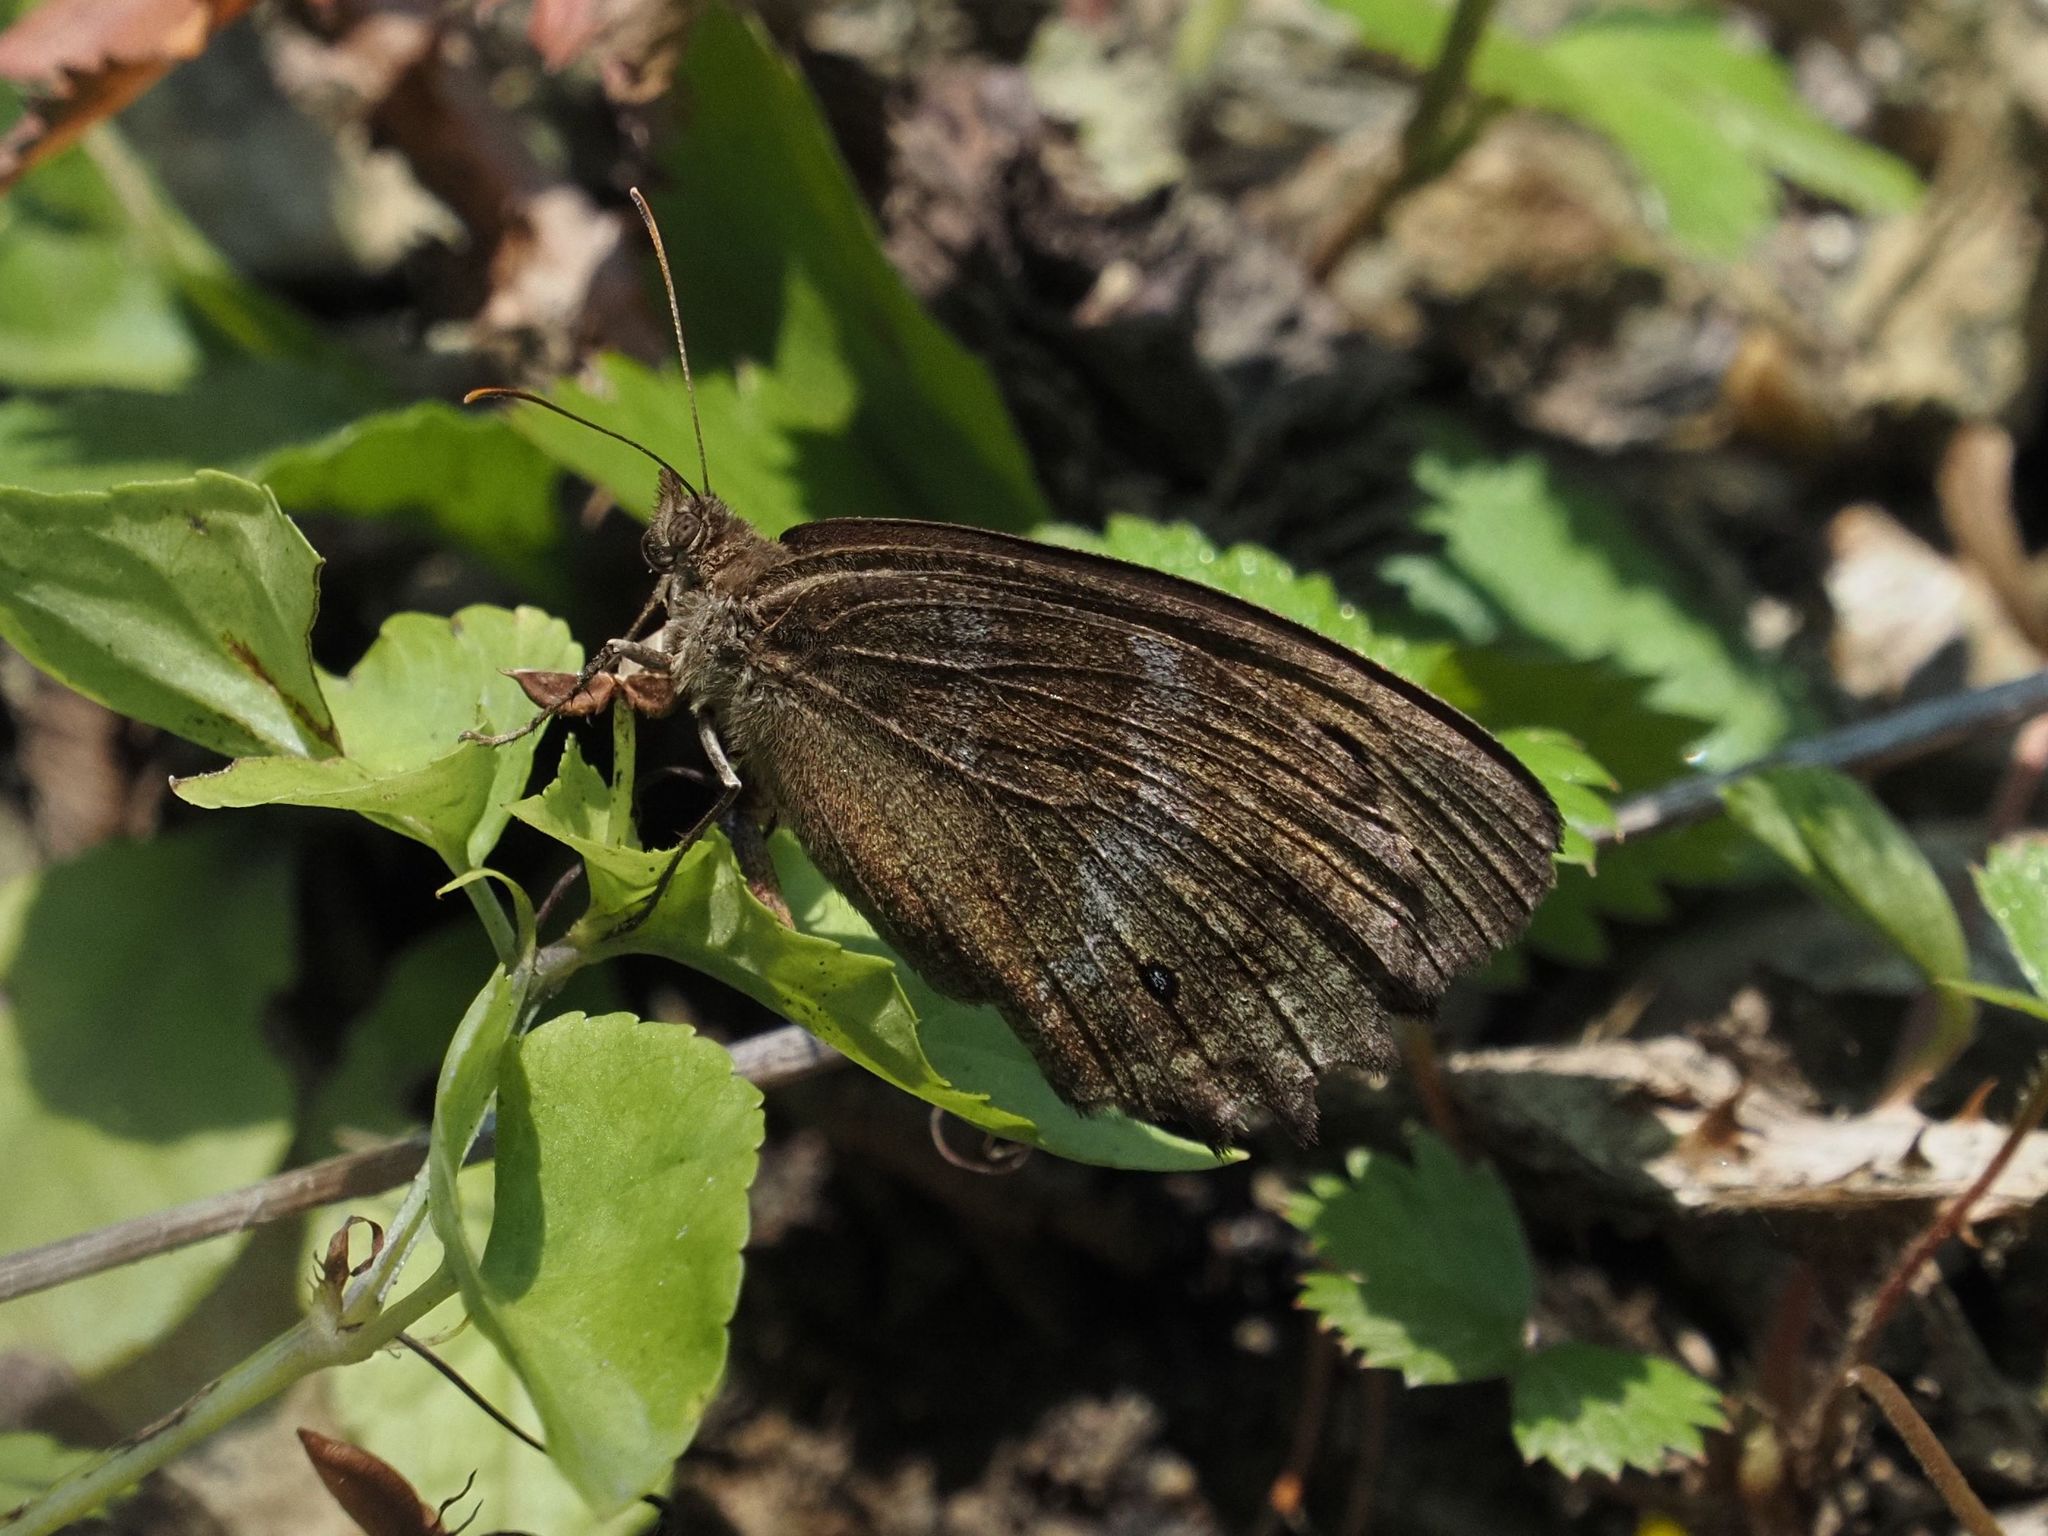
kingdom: Animalia
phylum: Arthropoda
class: Insecta
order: Lepidoptera
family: Nymphalidae
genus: Minois
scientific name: Minois dryas
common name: Dryad
